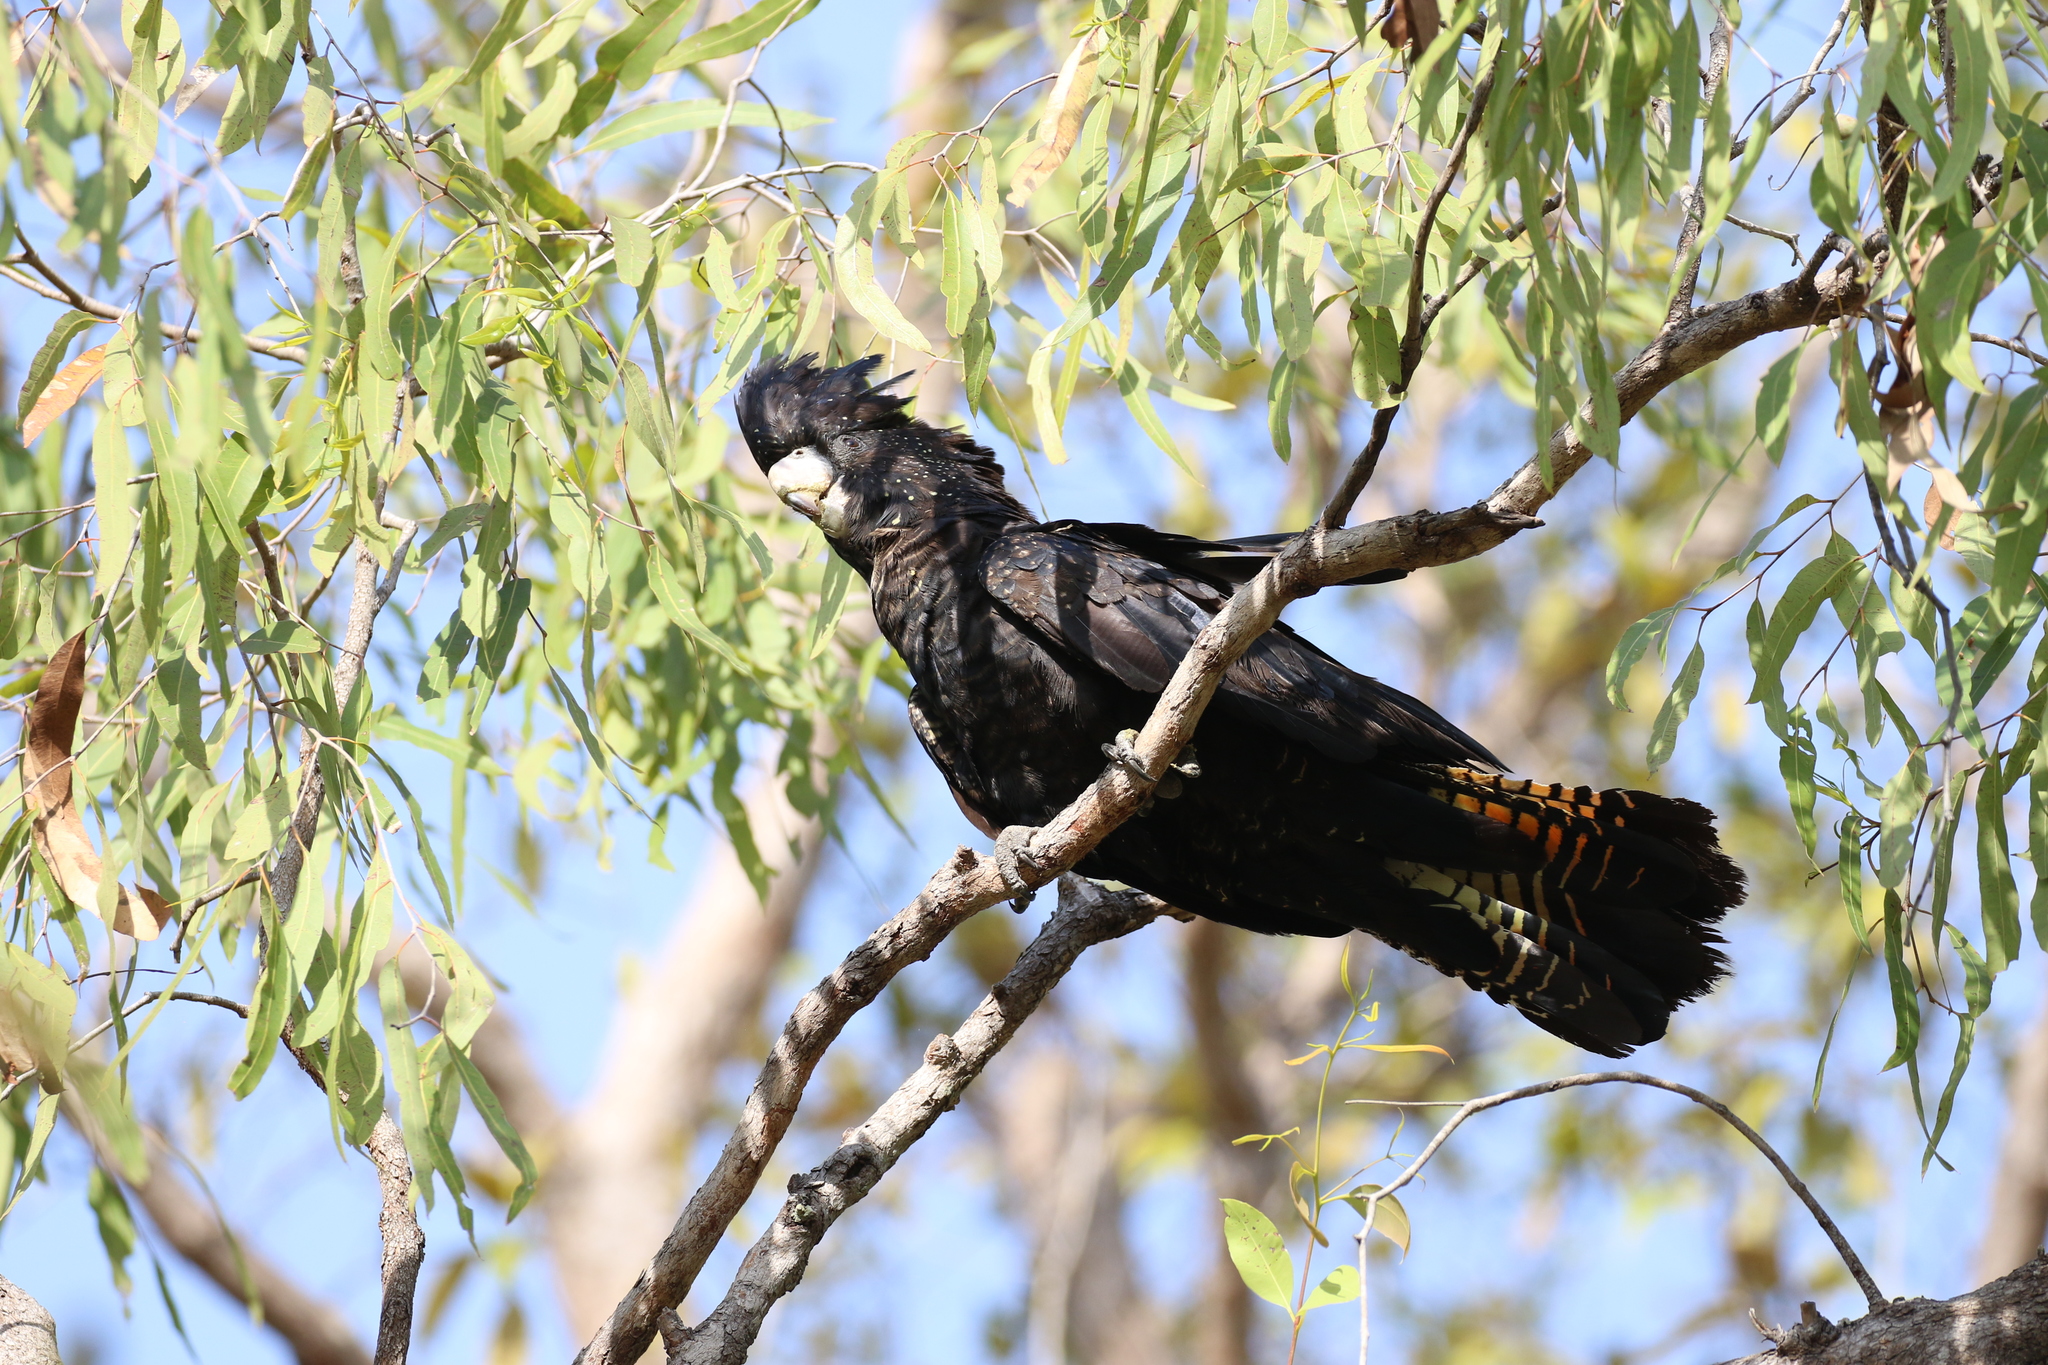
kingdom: Animalia
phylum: Chordata
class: Aves
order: Psittaciformes
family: Psittacidae
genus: Calyptorhynchus
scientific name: Calyptorhynchus banksii
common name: Red-tailed black cockatoo
